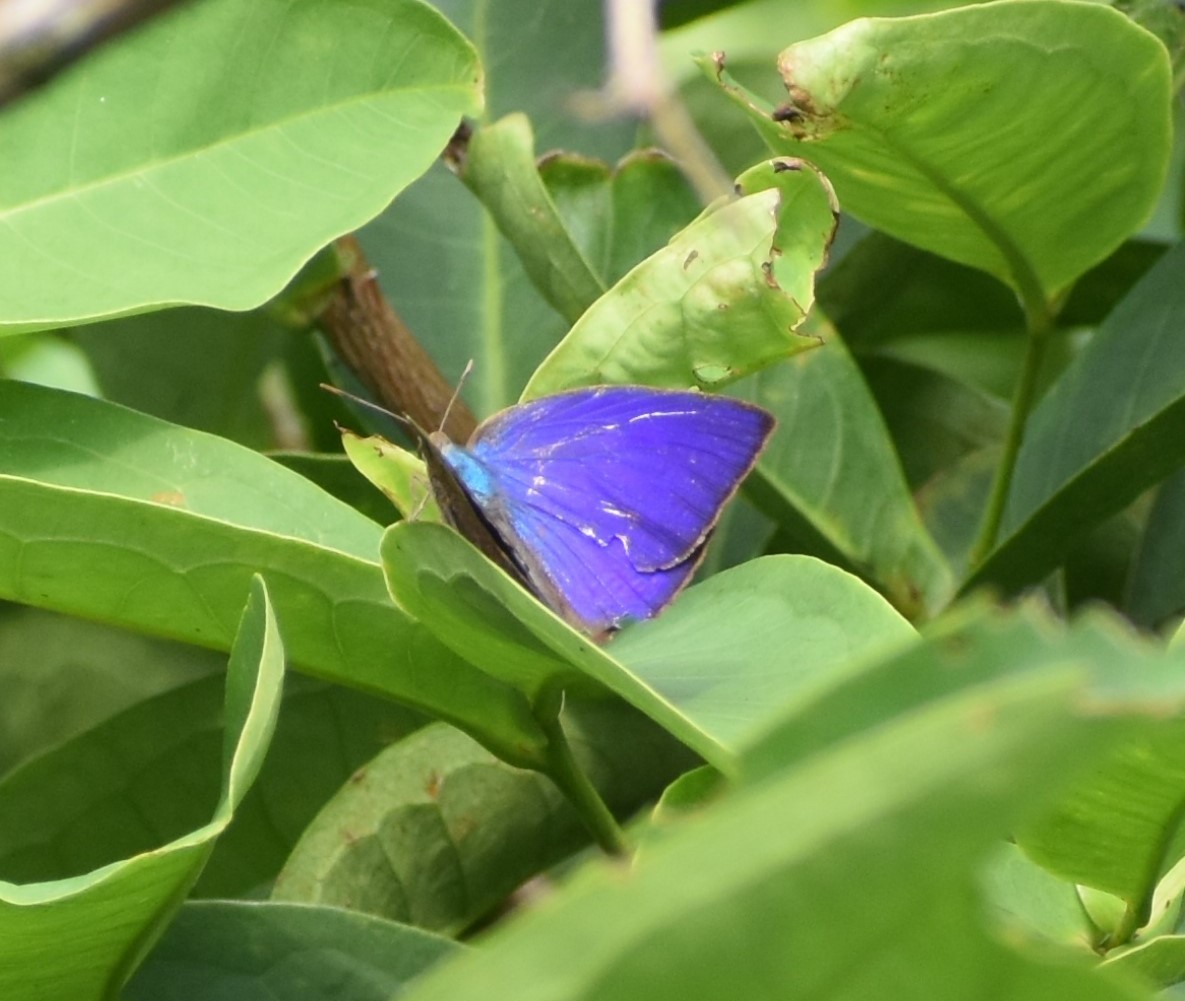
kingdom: Animalia
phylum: Arthropoda
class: Insecta
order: Lepidoptera
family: Lycaenidae
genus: Arhopala
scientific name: Arhopala centaurus
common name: Dull oak-blue
